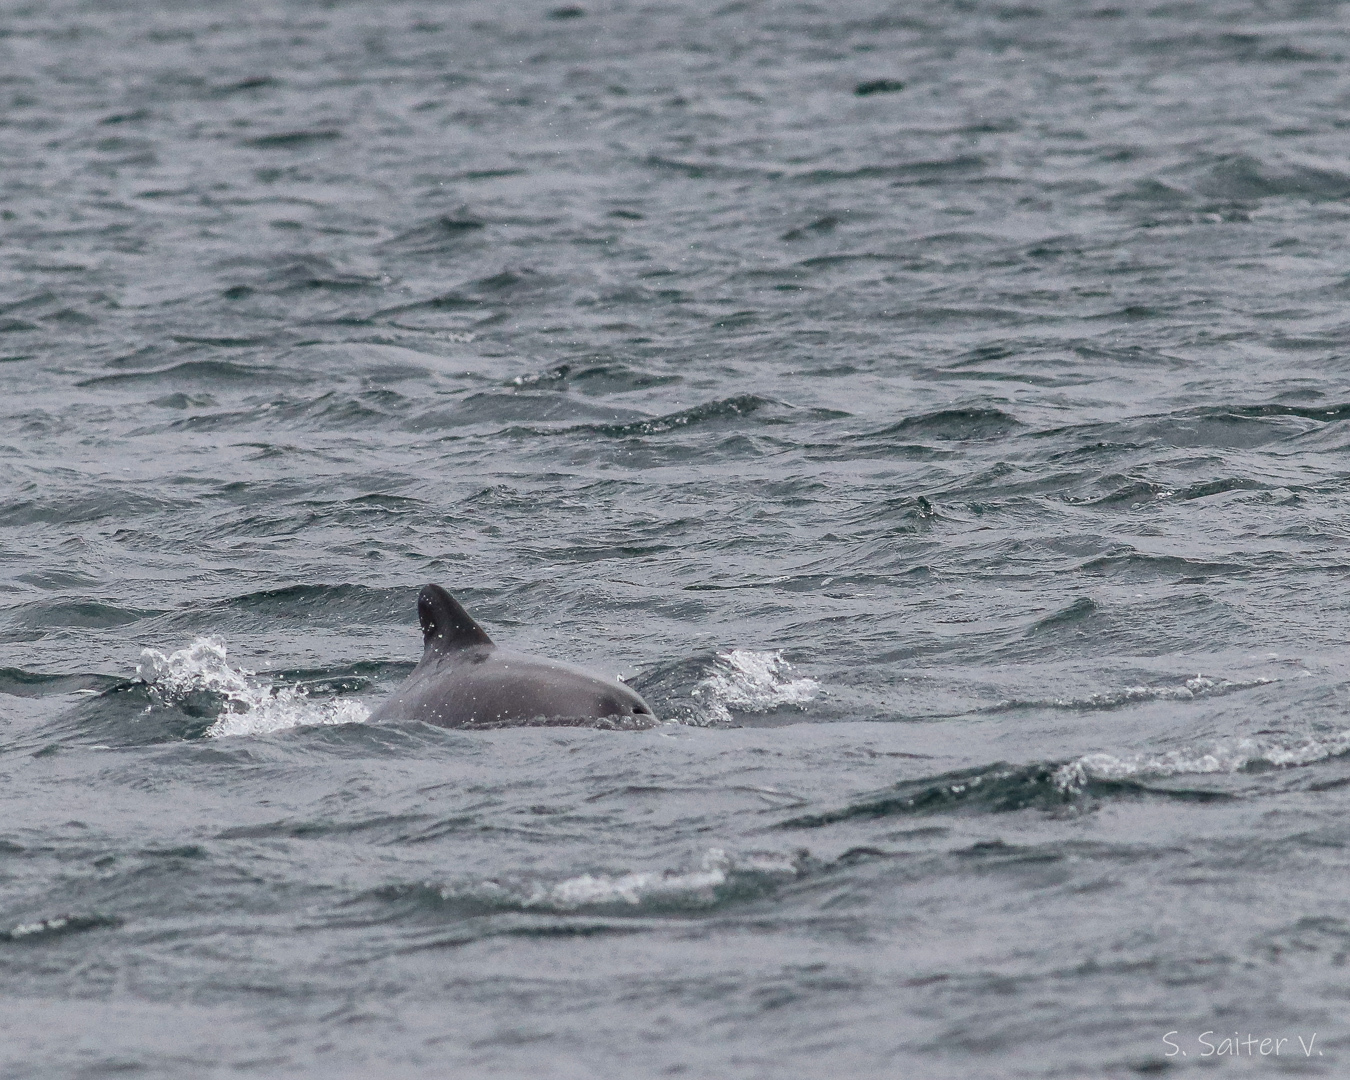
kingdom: Animalia
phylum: Chordata
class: Mammalia
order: Cetacea
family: Delphinidae
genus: Cephalorhynchus
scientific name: Cephalorhynchus eutropia
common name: Chilean dolphin
